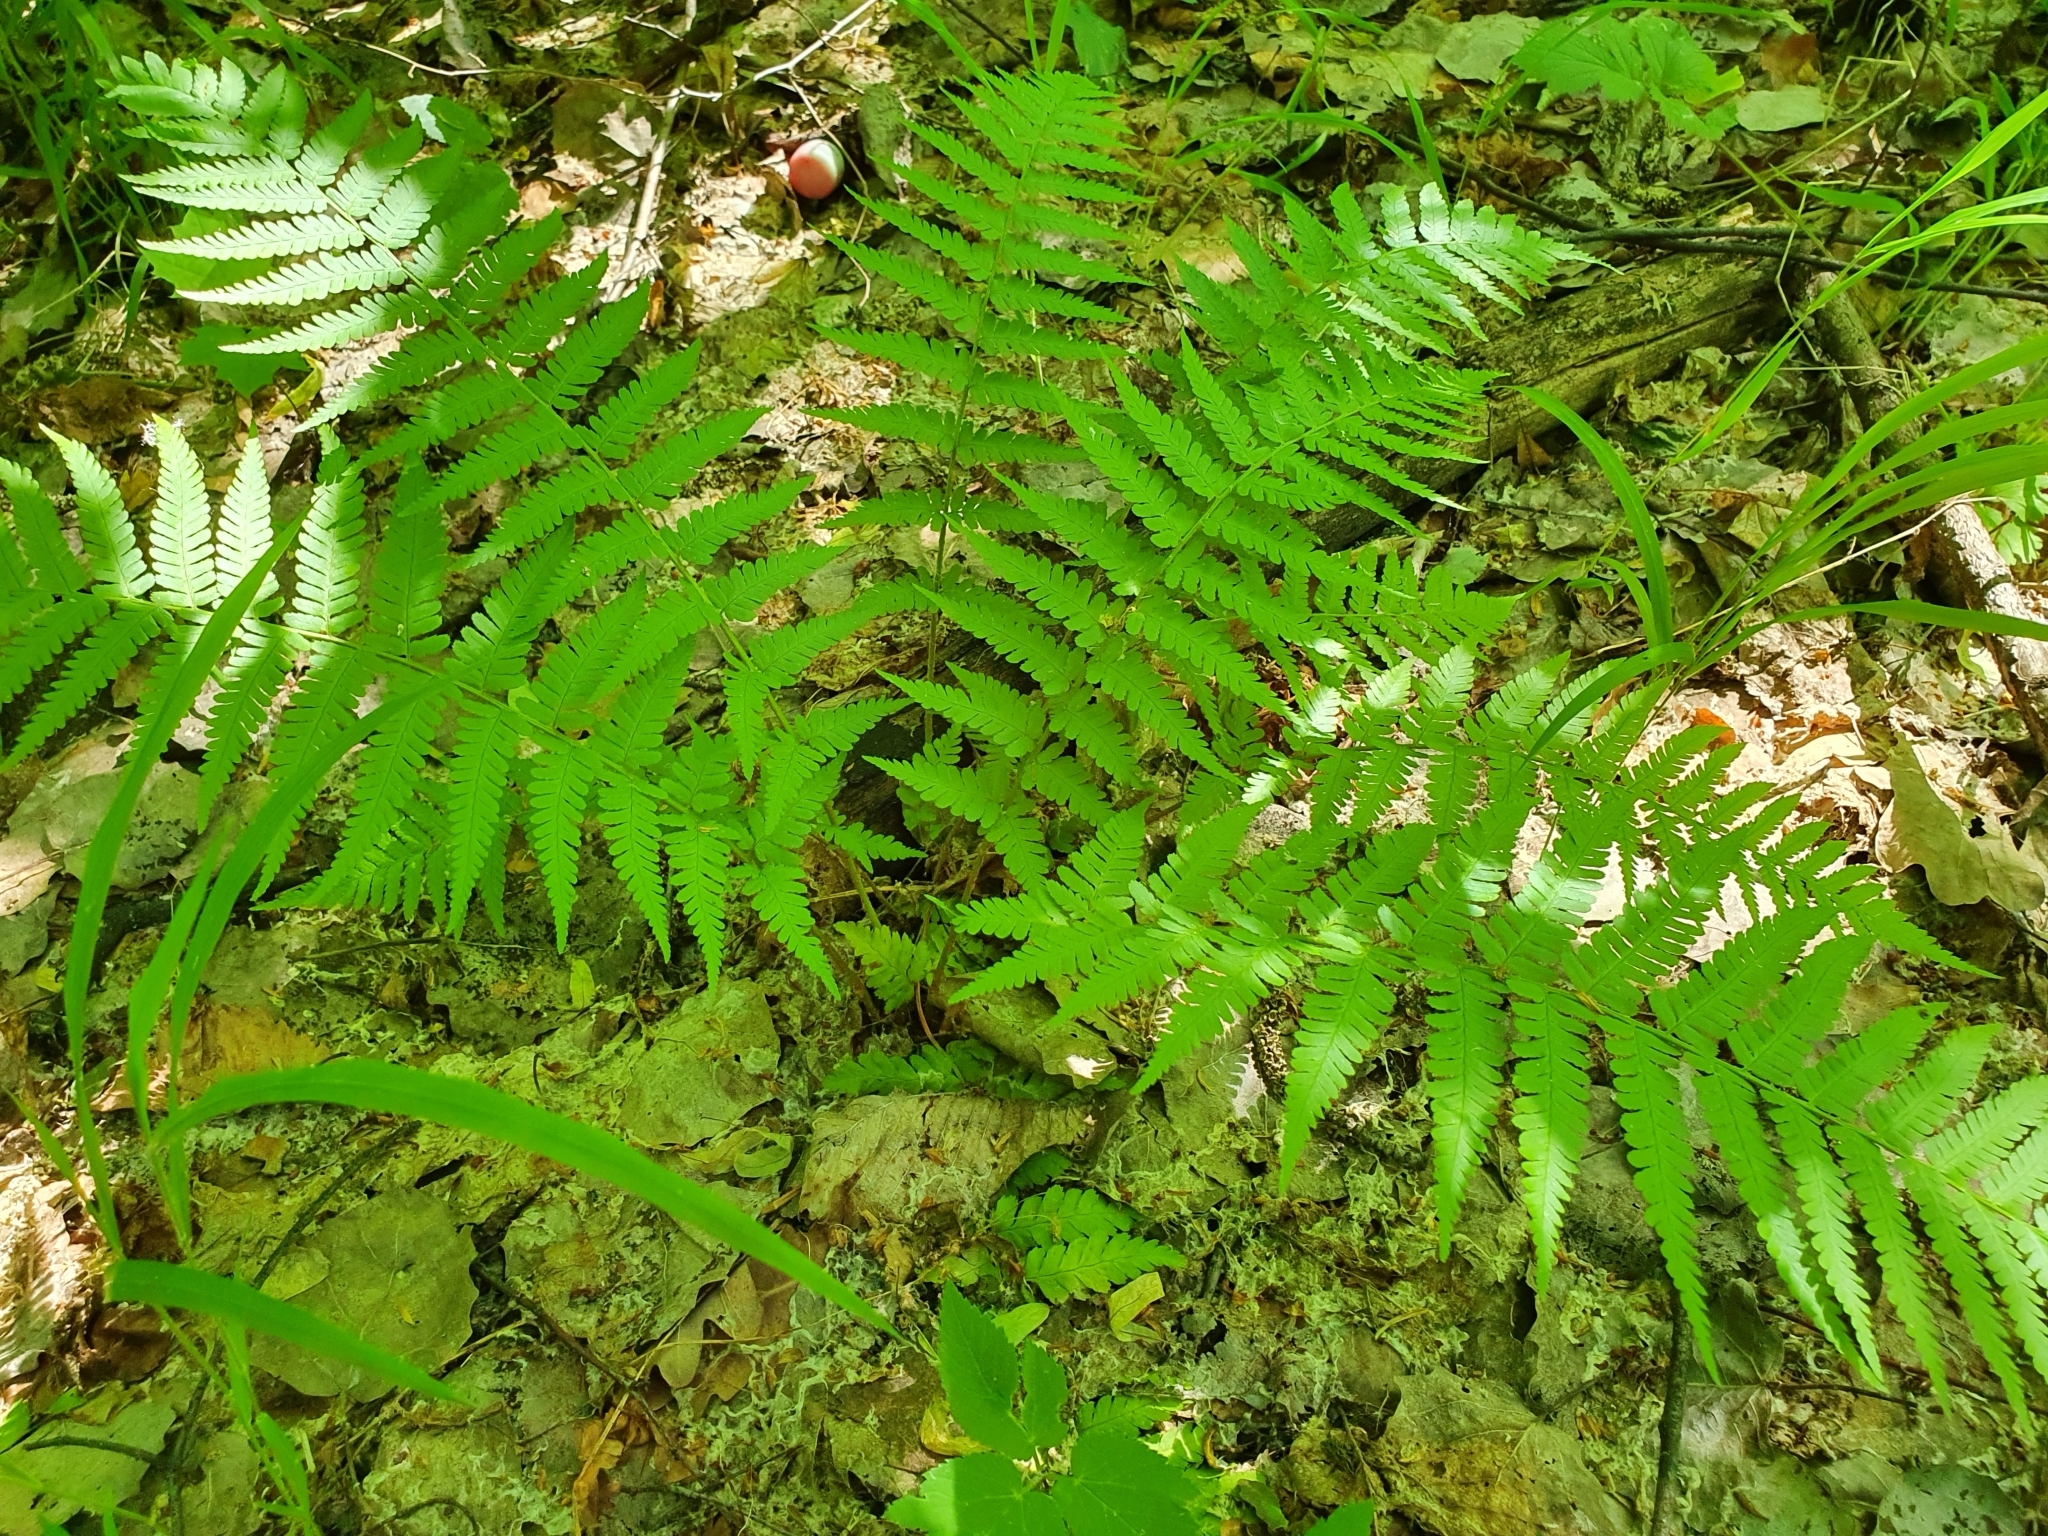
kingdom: Plantae
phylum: Tracheophyta
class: Polypodiopsida
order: Polypodiales
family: Dryopteridaceae
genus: Dryopteris
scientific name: Dryopteris filix-mas
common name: Male fern
